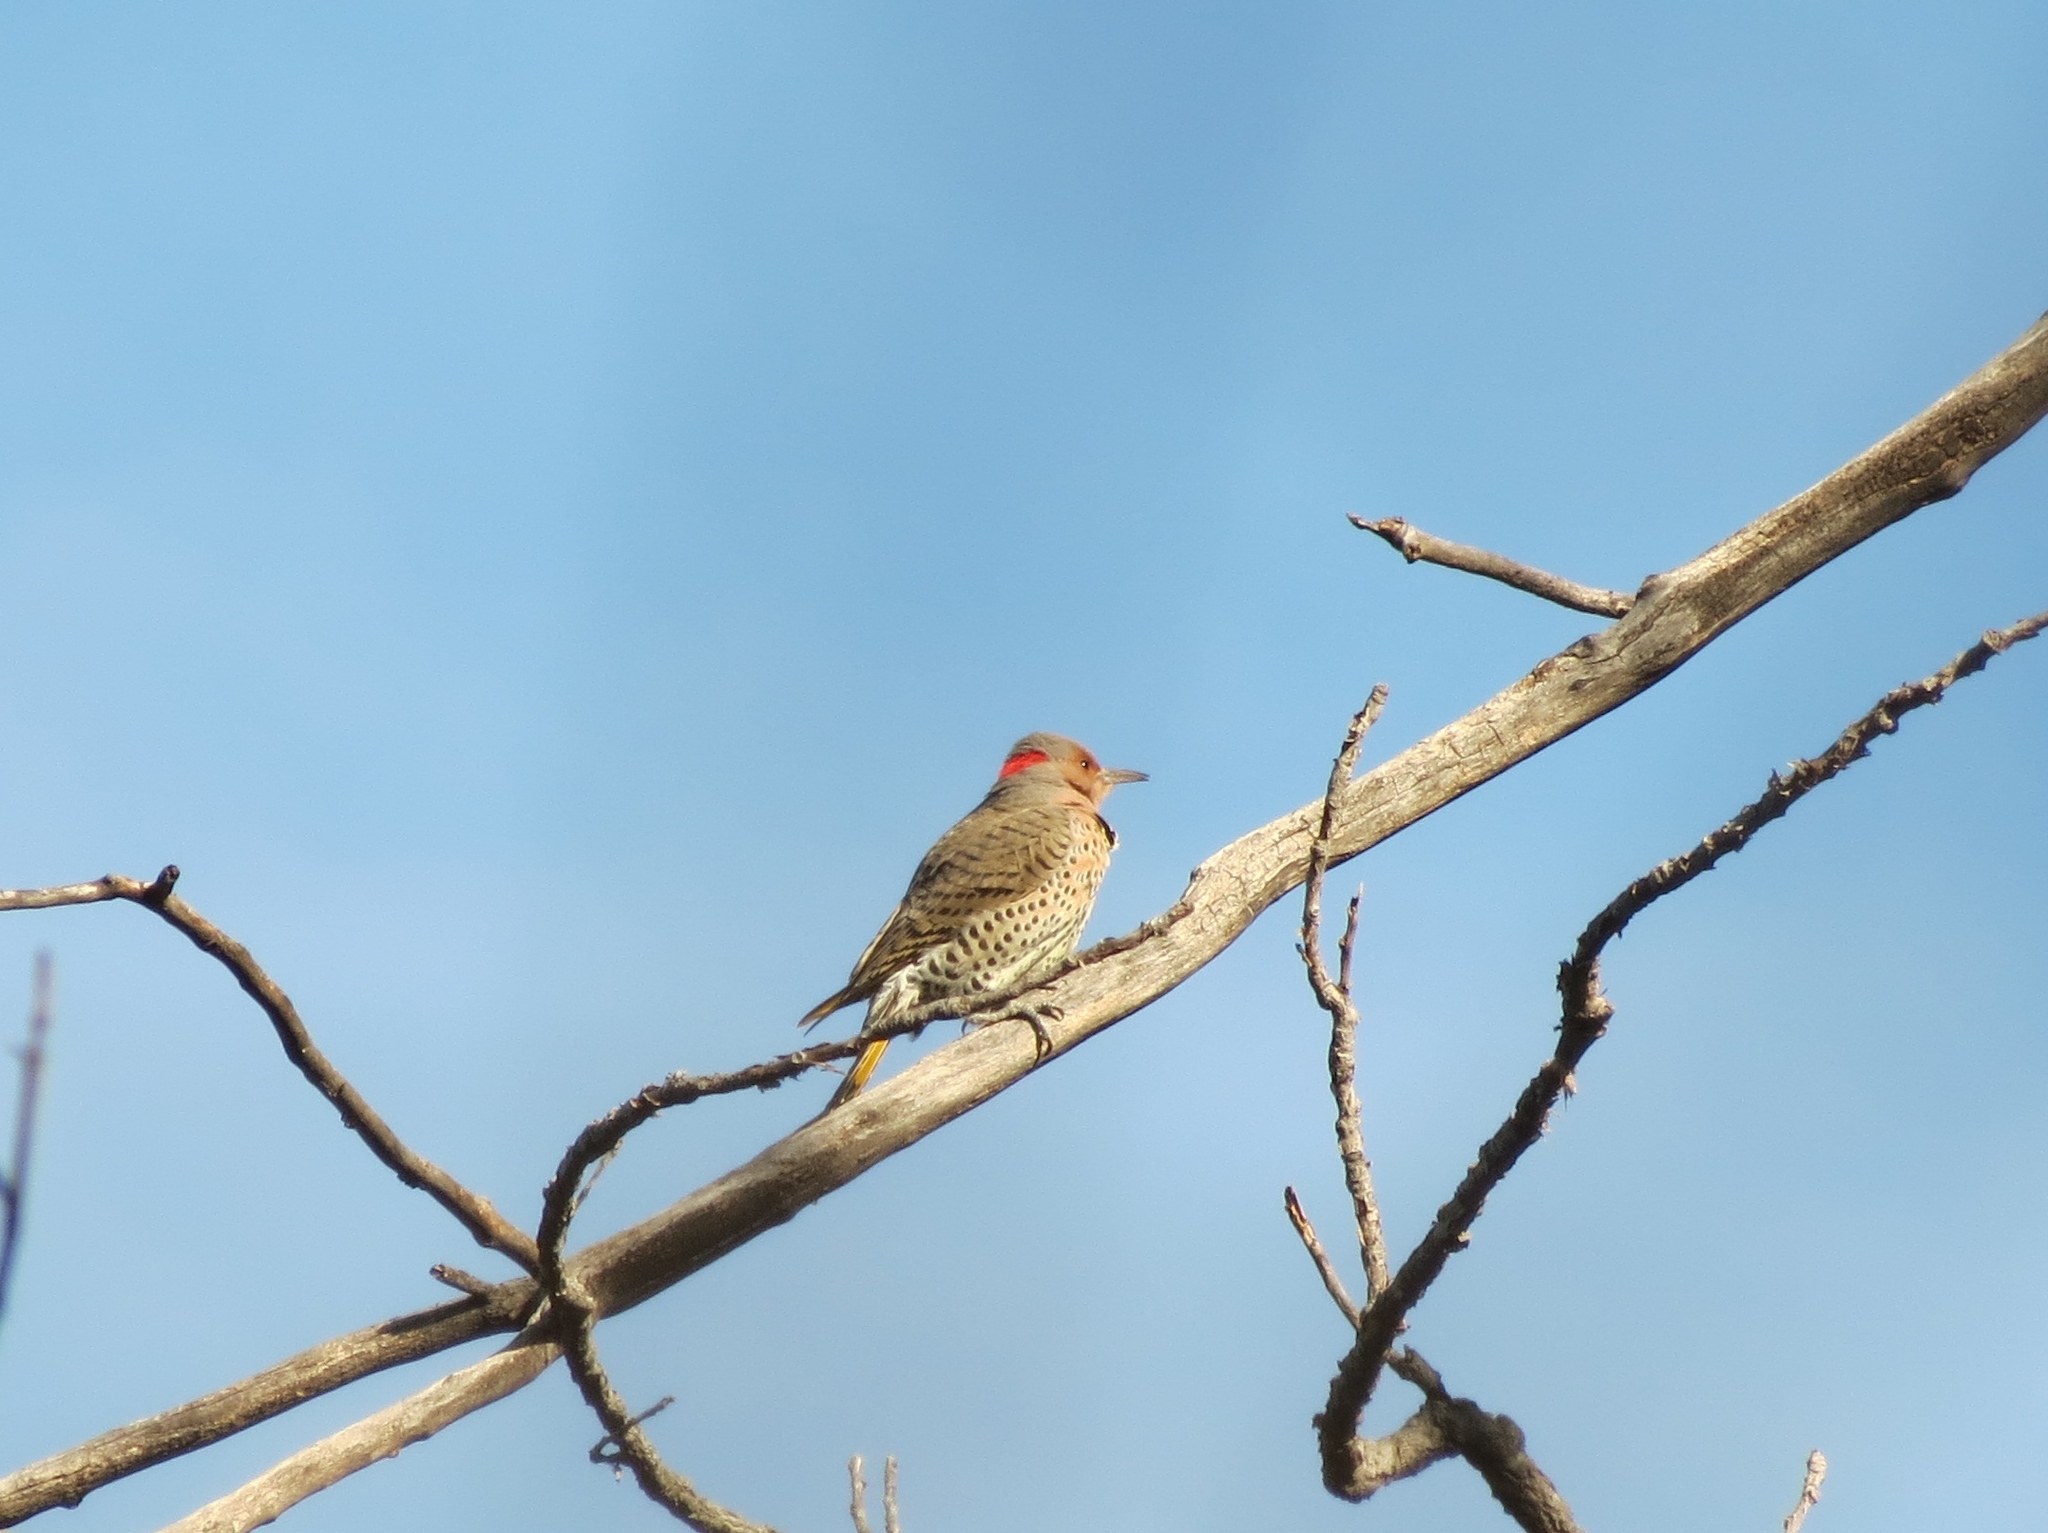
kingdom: Animalia
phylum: Chordata
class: Aves
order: Piciformes
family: Picidae
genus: Colaptes
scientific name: Colaptes auratus
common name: Northern flicker
